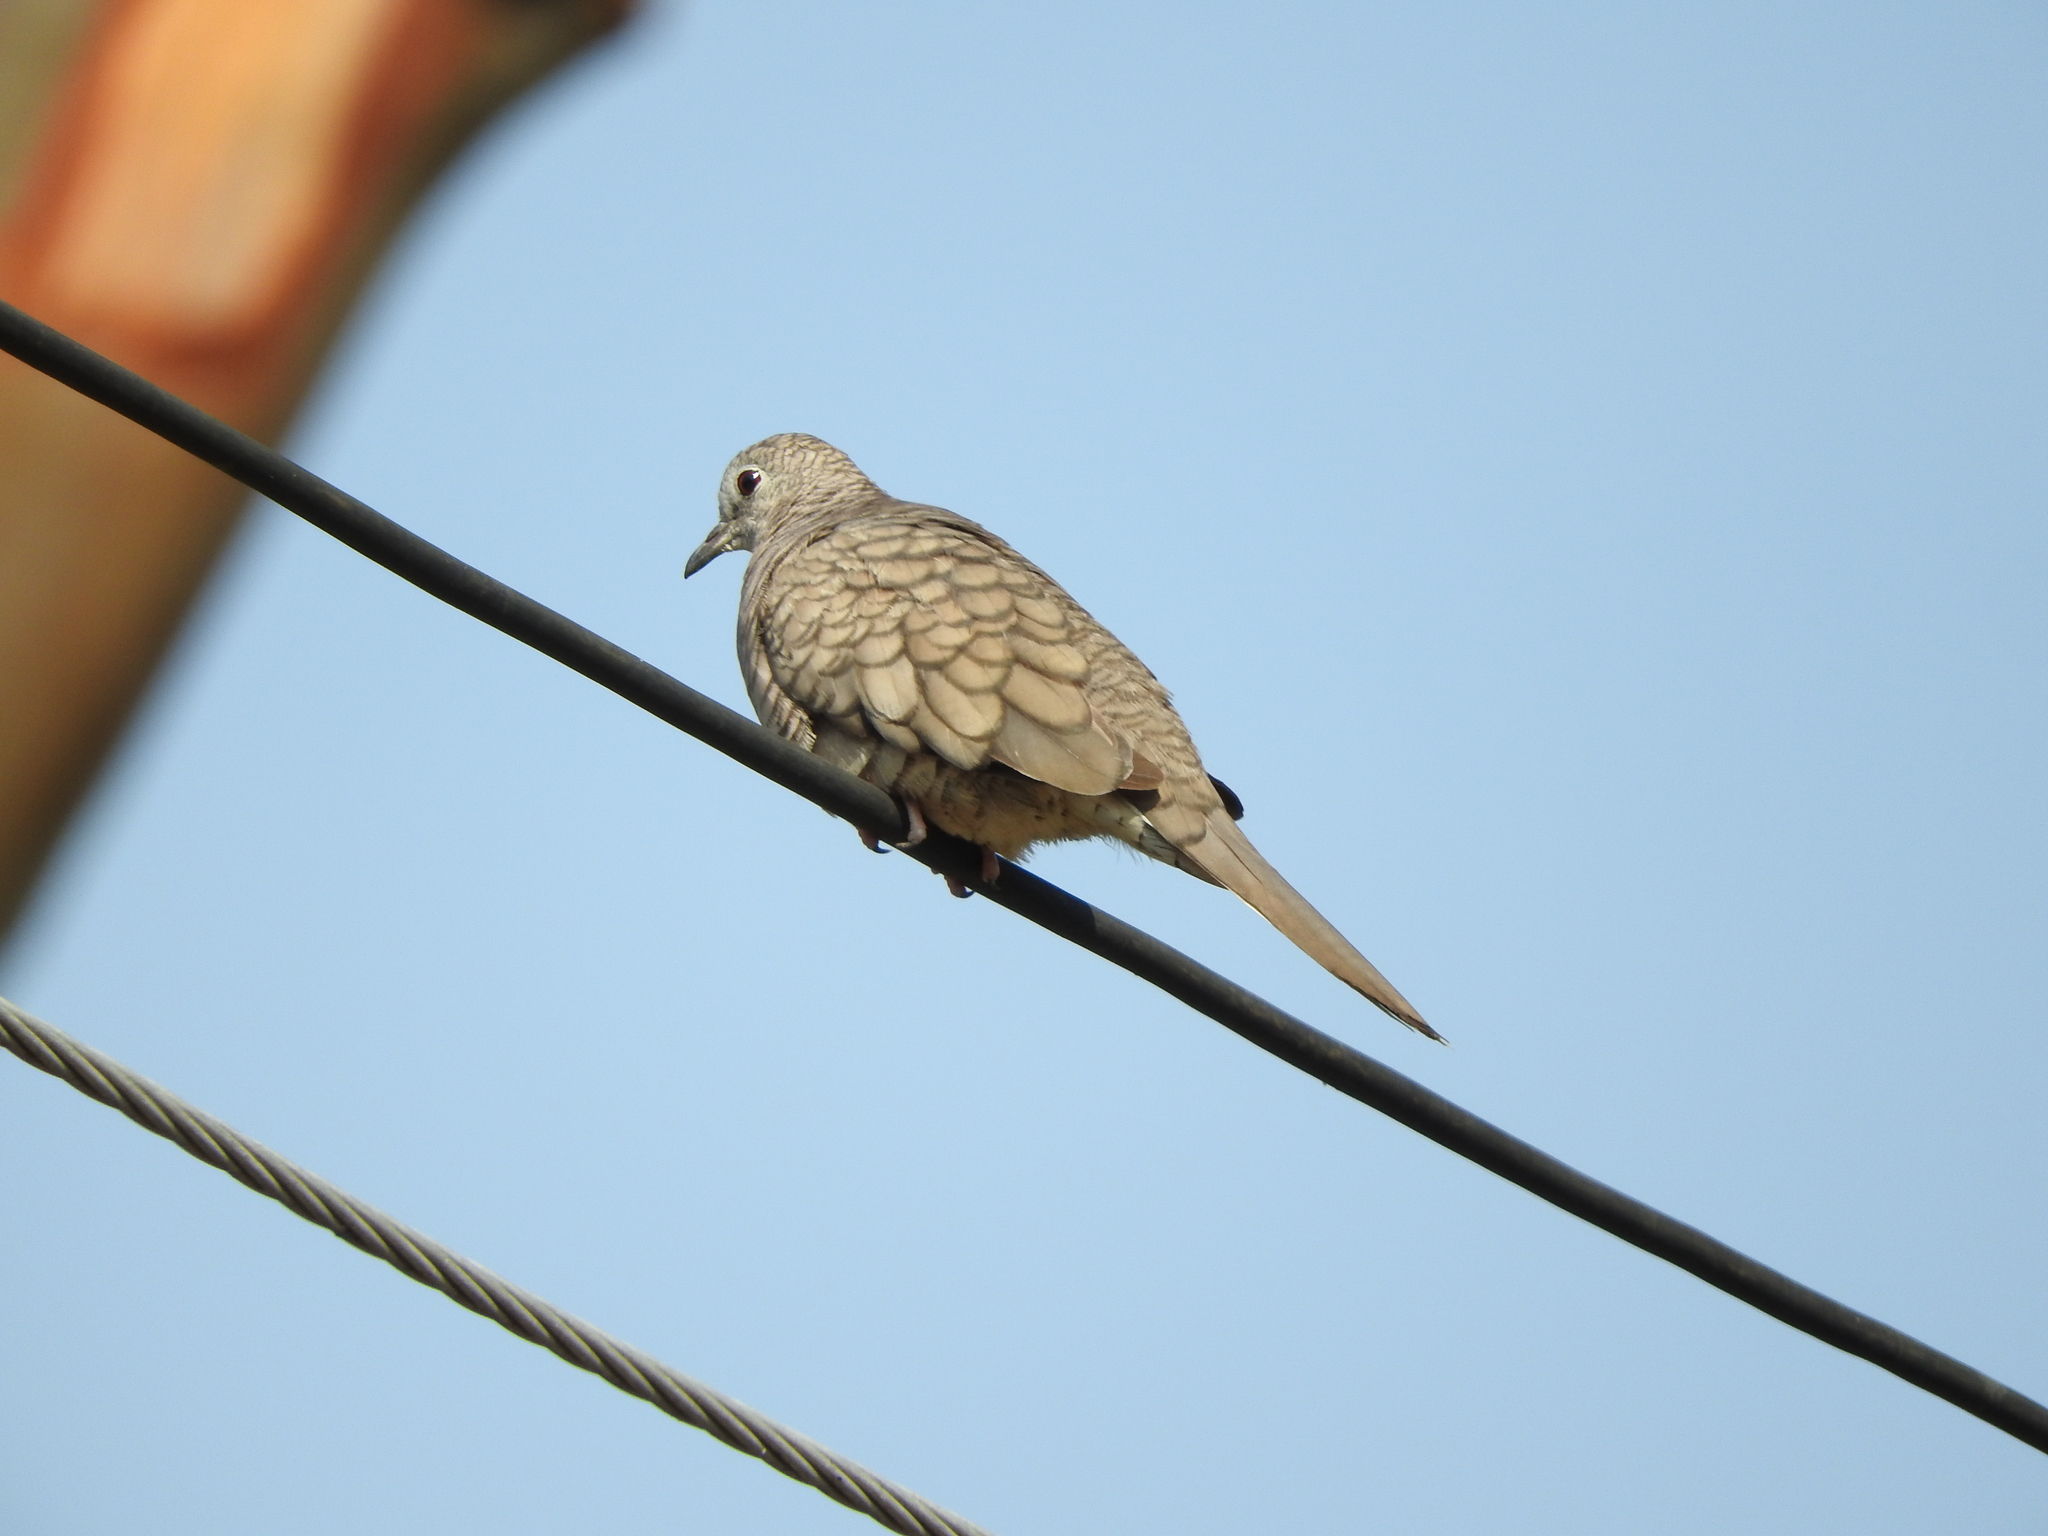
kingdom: Animalia
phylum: Chordata
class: Aves
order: Columbiformes
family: Columbidae
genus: Columbina
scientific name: Columbina inca
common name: Inca dove
